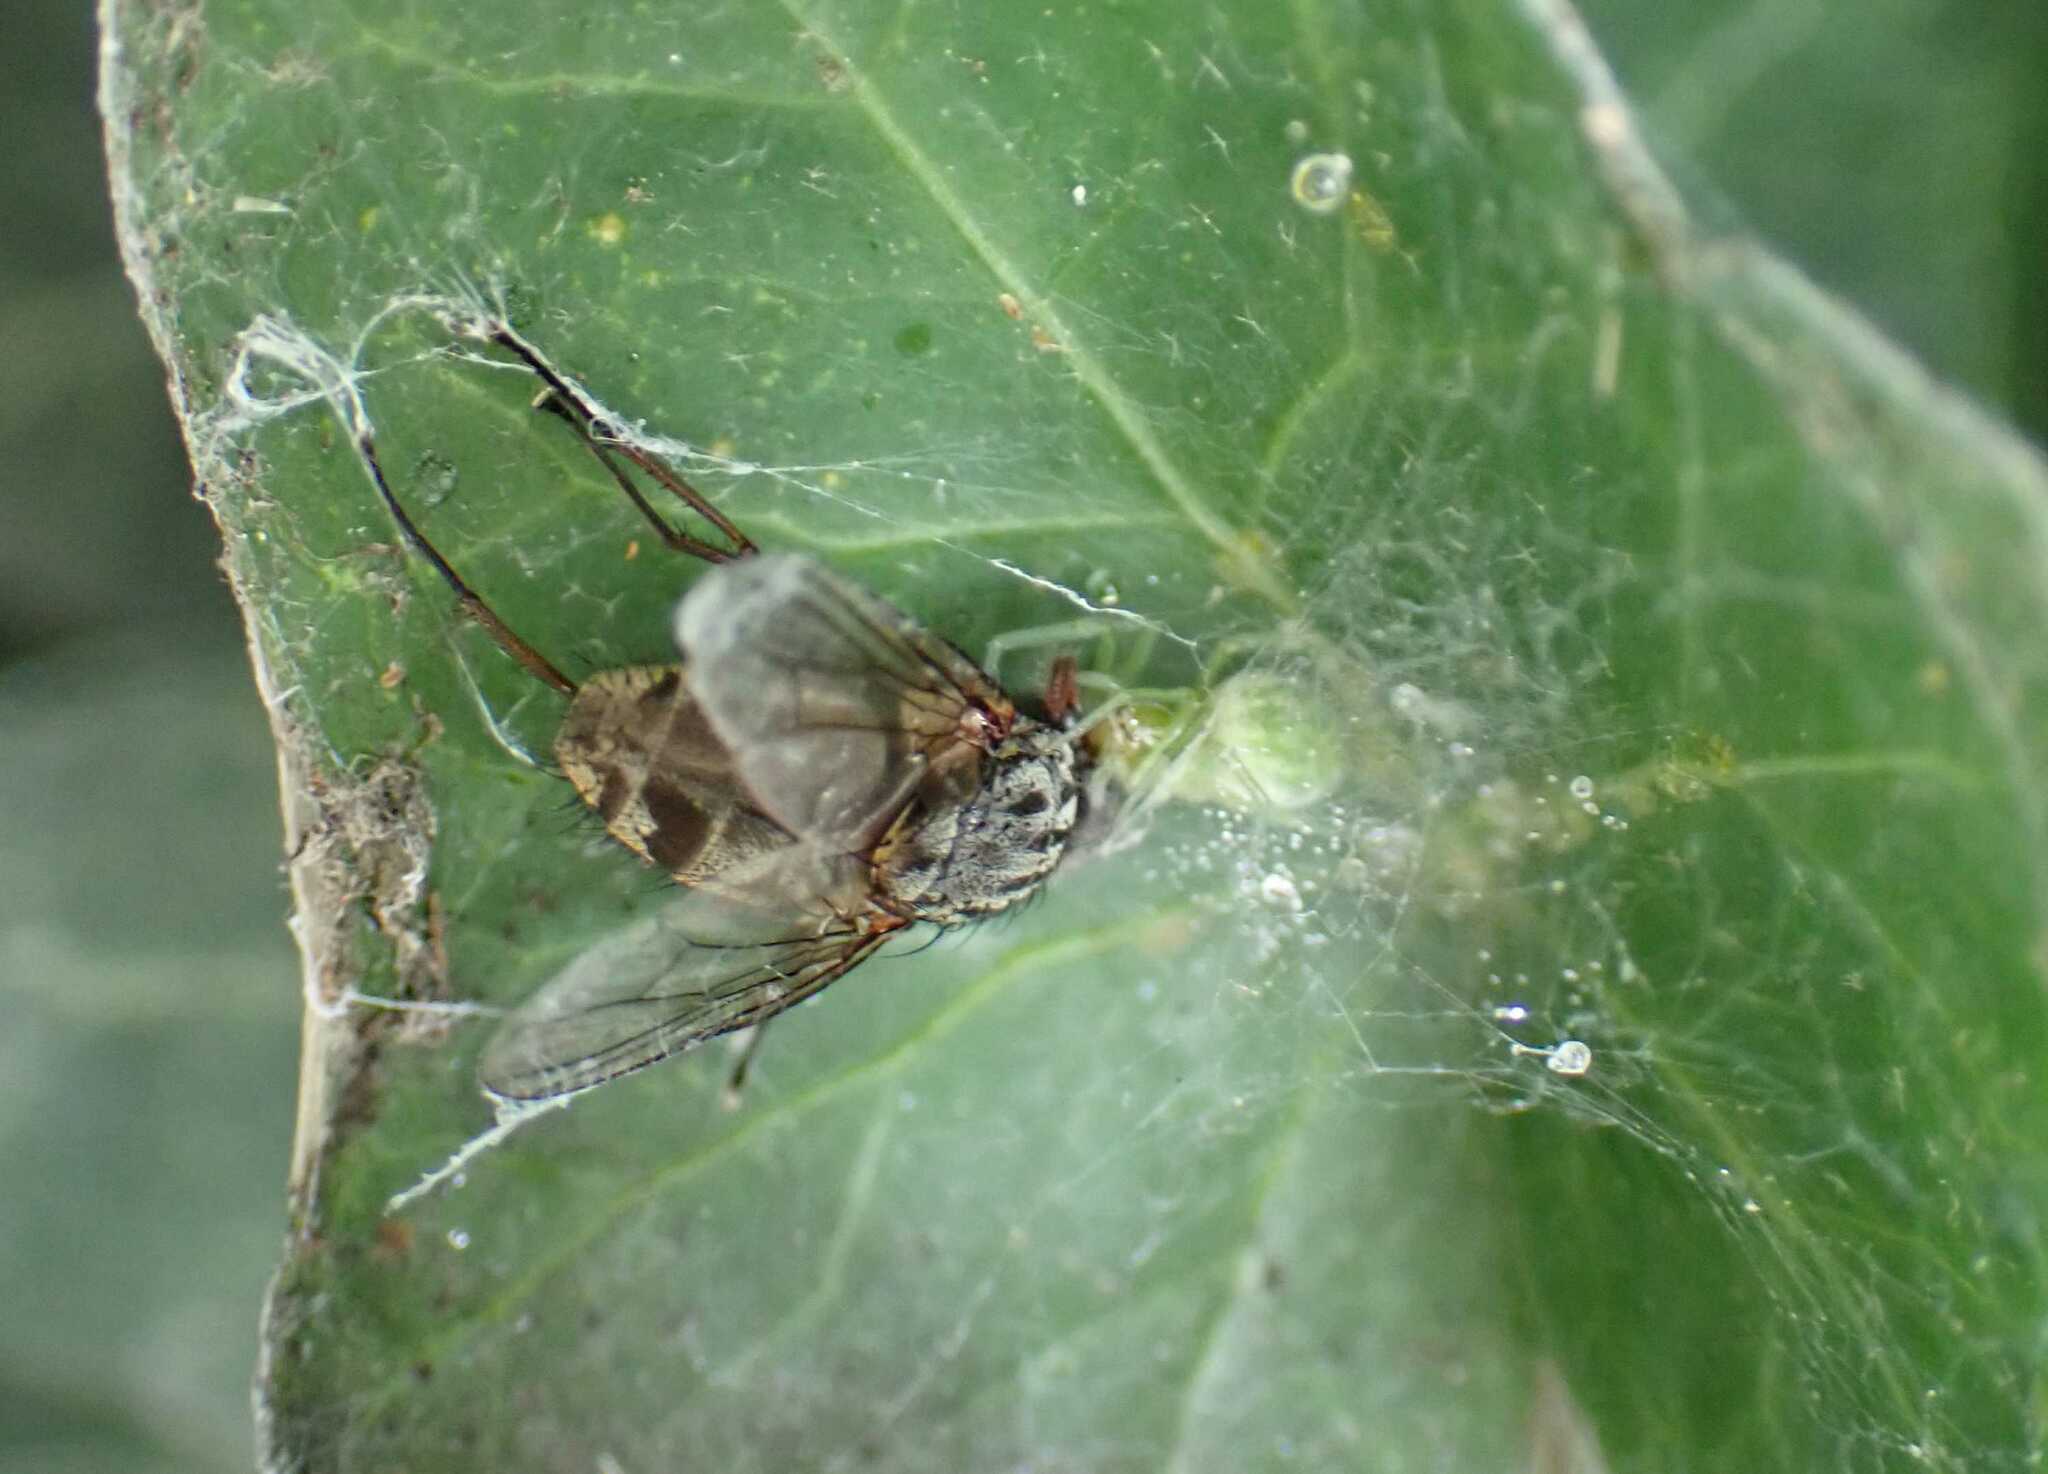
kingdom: Animalia
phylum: Arthropoda
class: Arachnida
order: Araneae
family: Dictynidae
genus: Nigma
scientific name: Nigma walckenaeri
